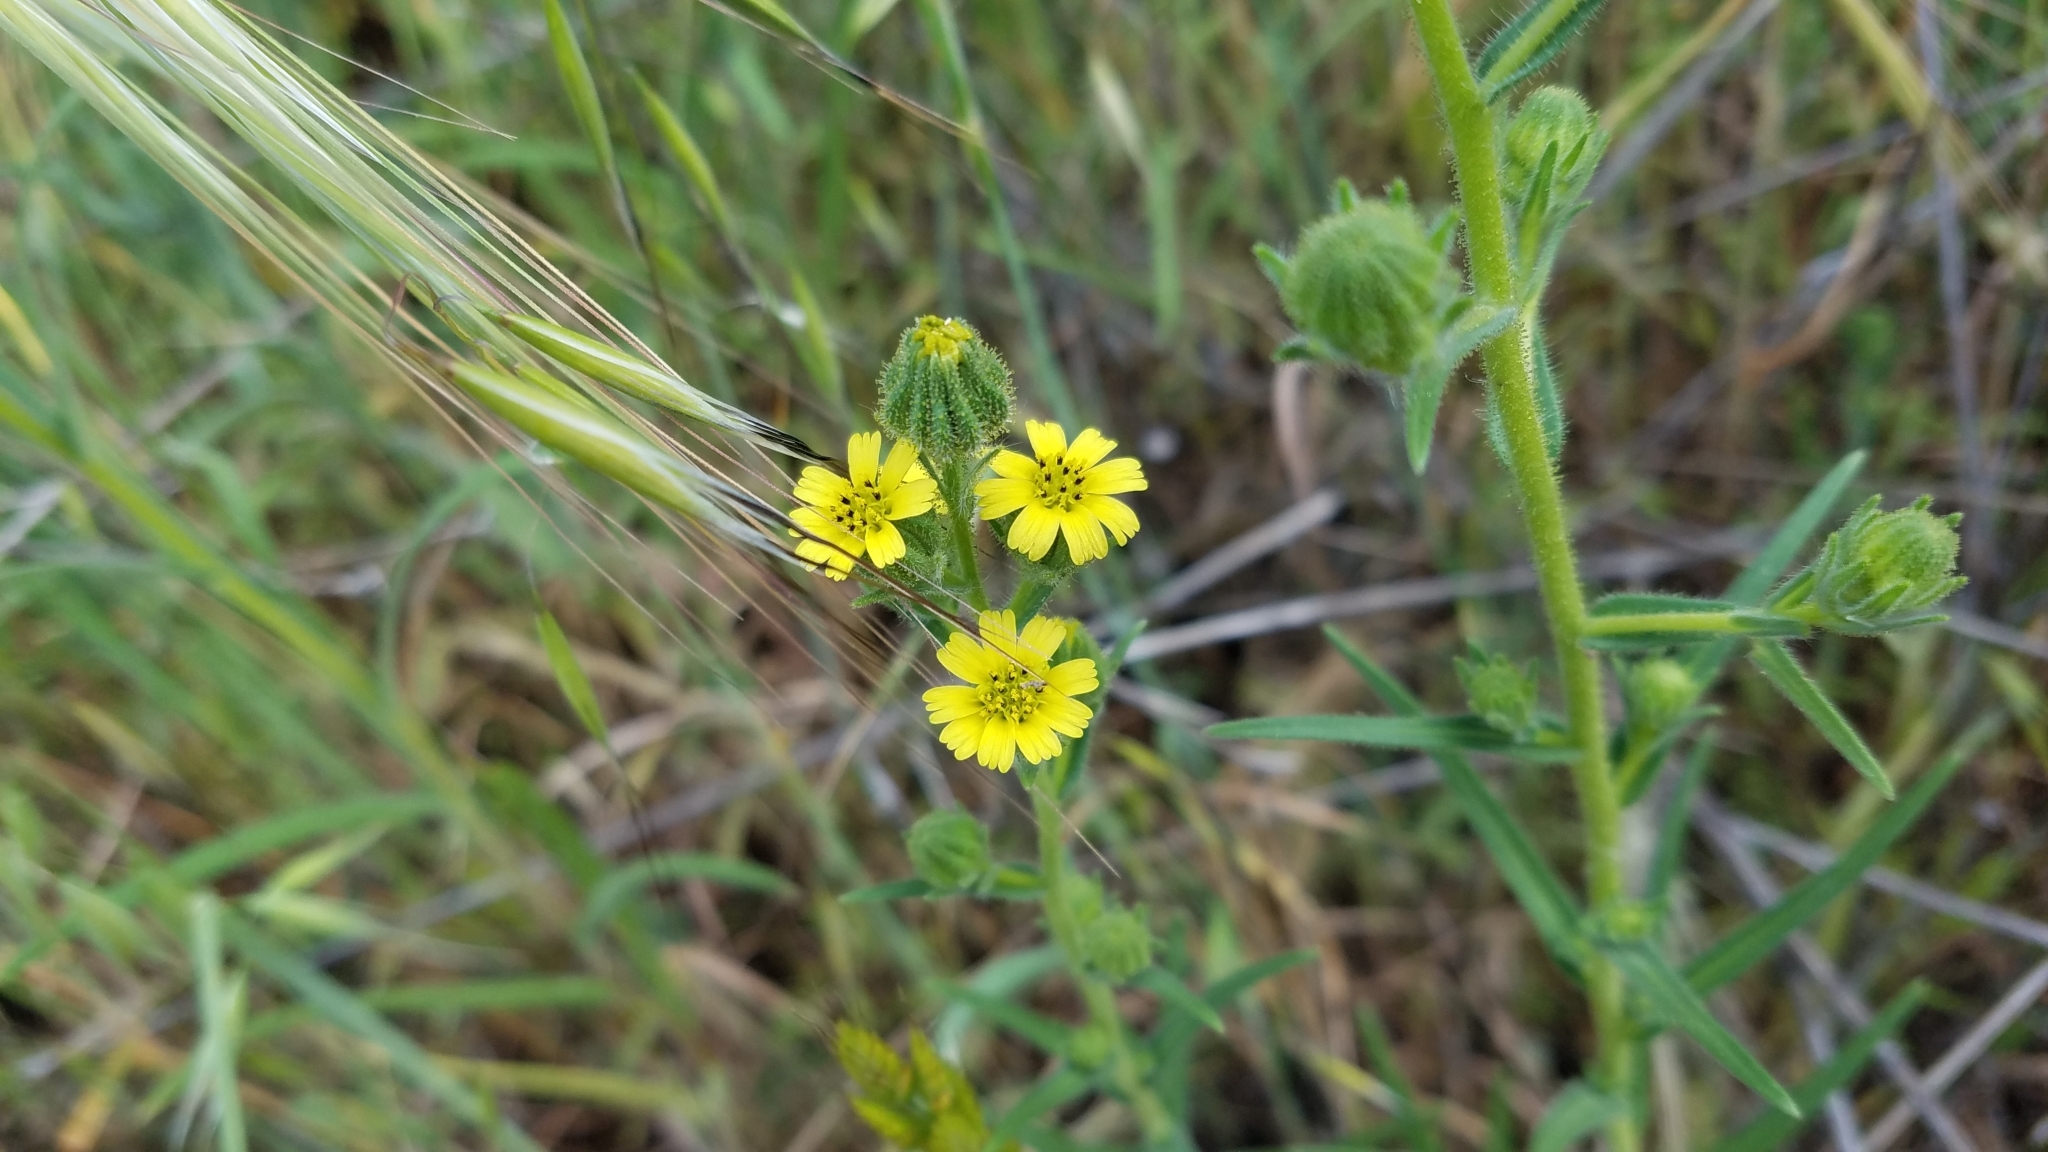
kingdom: Plantae
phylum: Tracheophyta
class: Magnoliopsida
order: Asterales
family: Asteraceae
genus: Madia
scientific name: Madia gracilis
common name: Grassy tarweed
